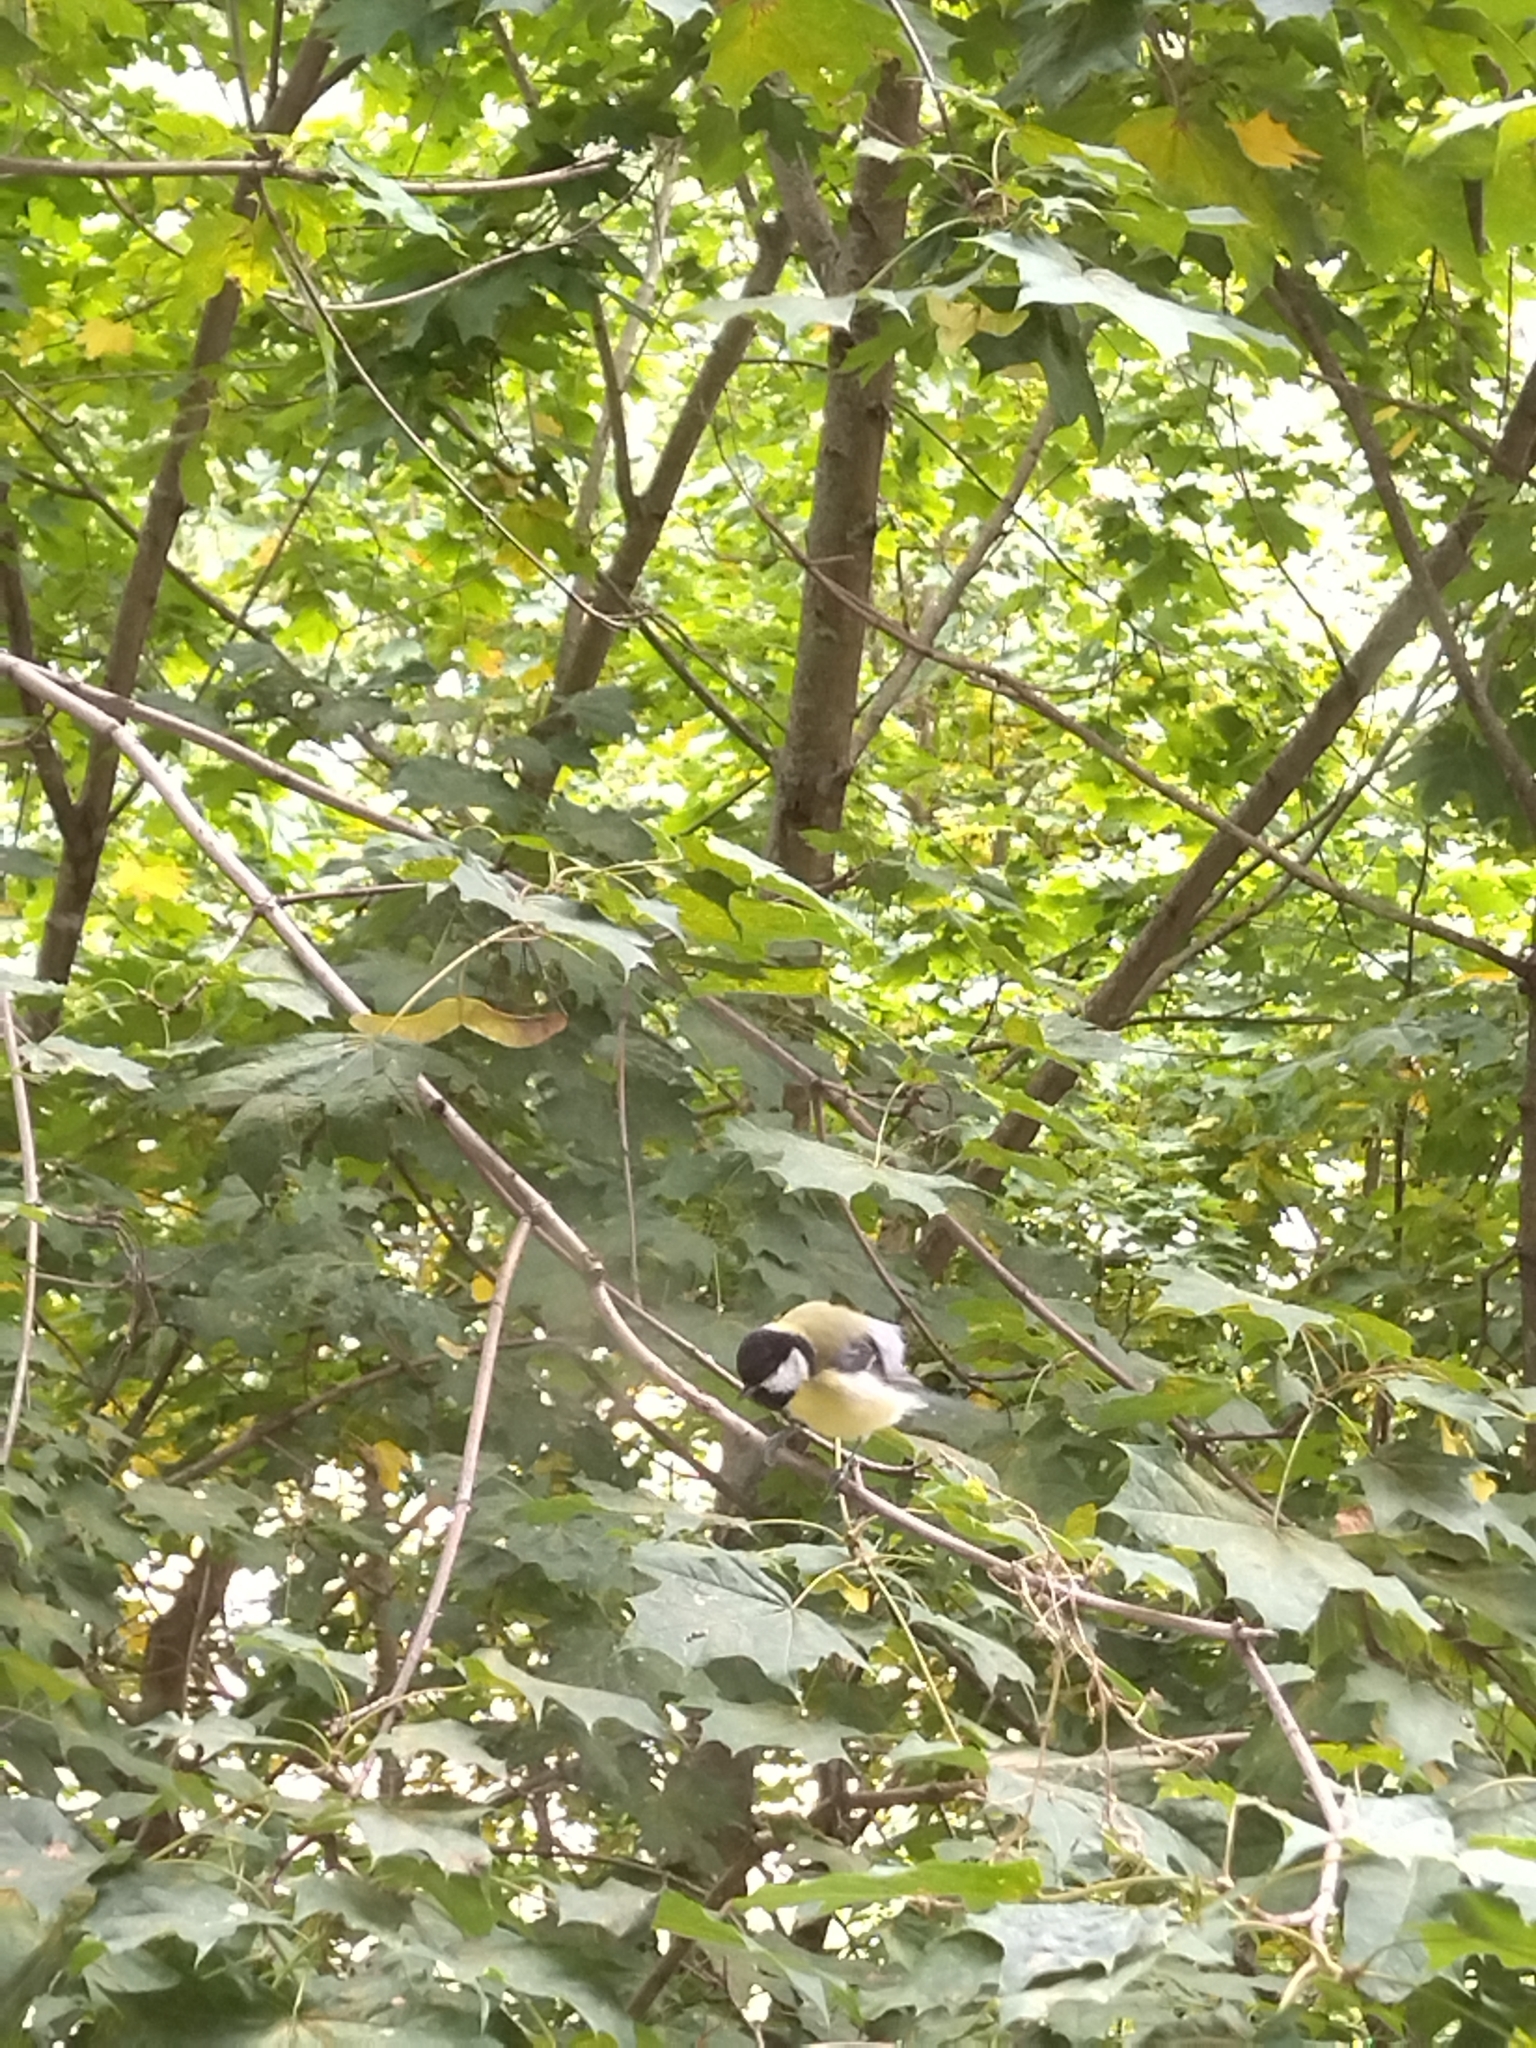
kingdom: Animalia
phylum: Chordata
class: Aves
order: Passeriformes
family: Paridae
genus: Parus
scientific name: Parus major
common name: Great tit
